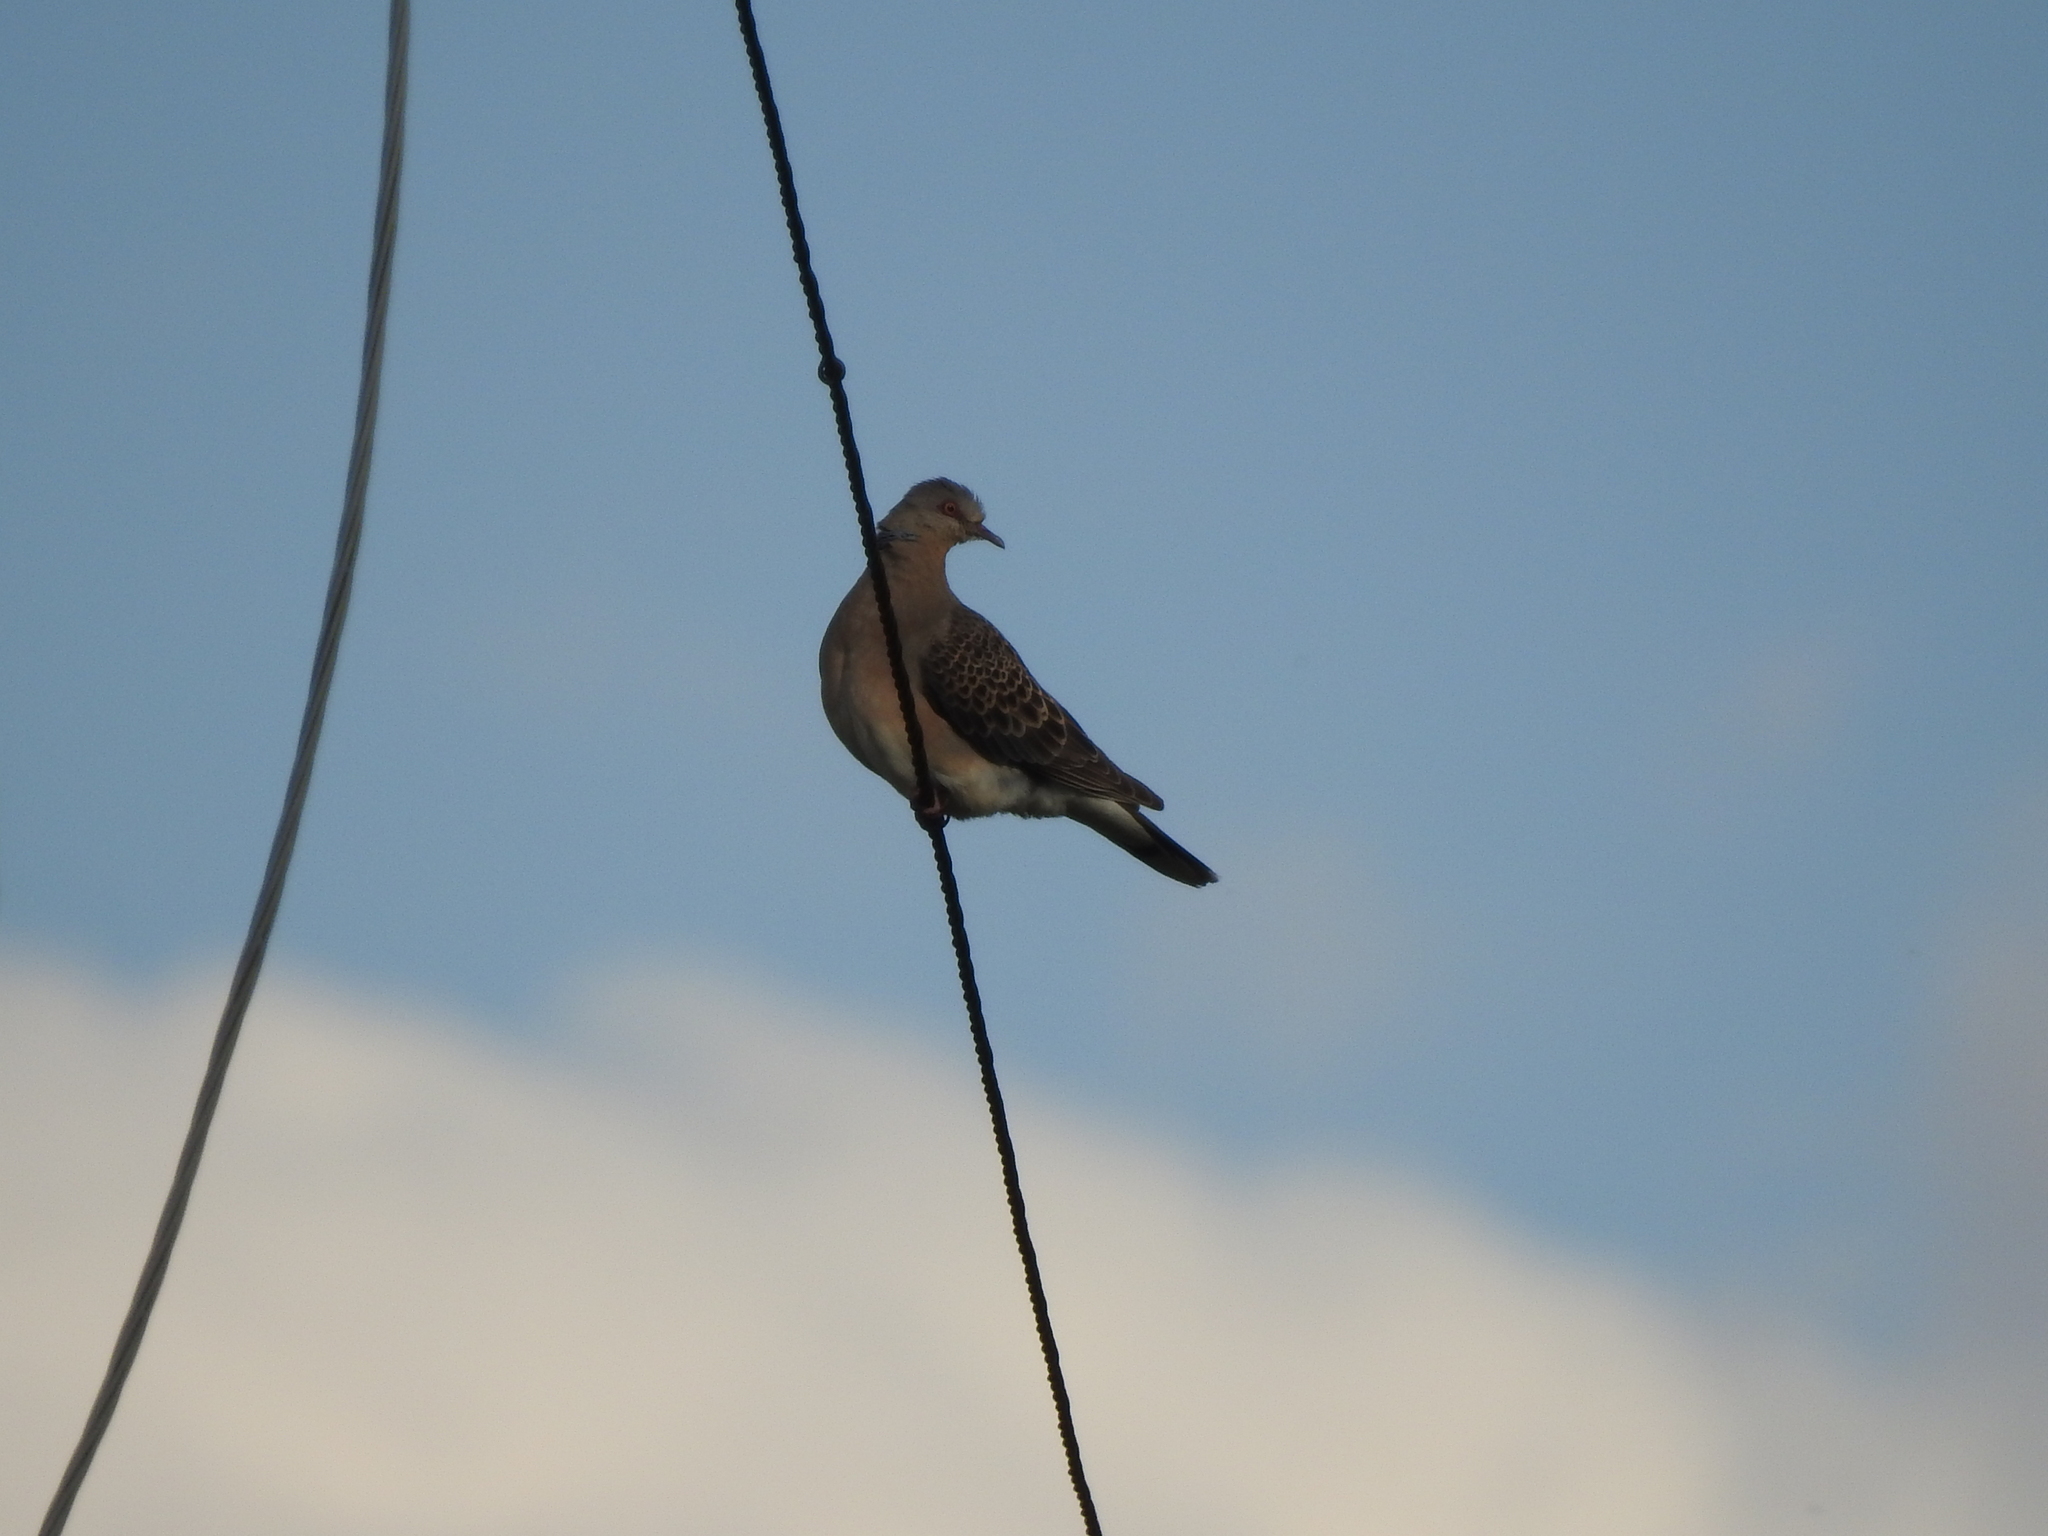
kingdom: Animalia
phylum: Chordata
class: Aves
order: Columbiformes
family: Columbidae
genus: Streptopelia
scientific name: Streptopelia orientalis
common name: Oriental turtle dove
